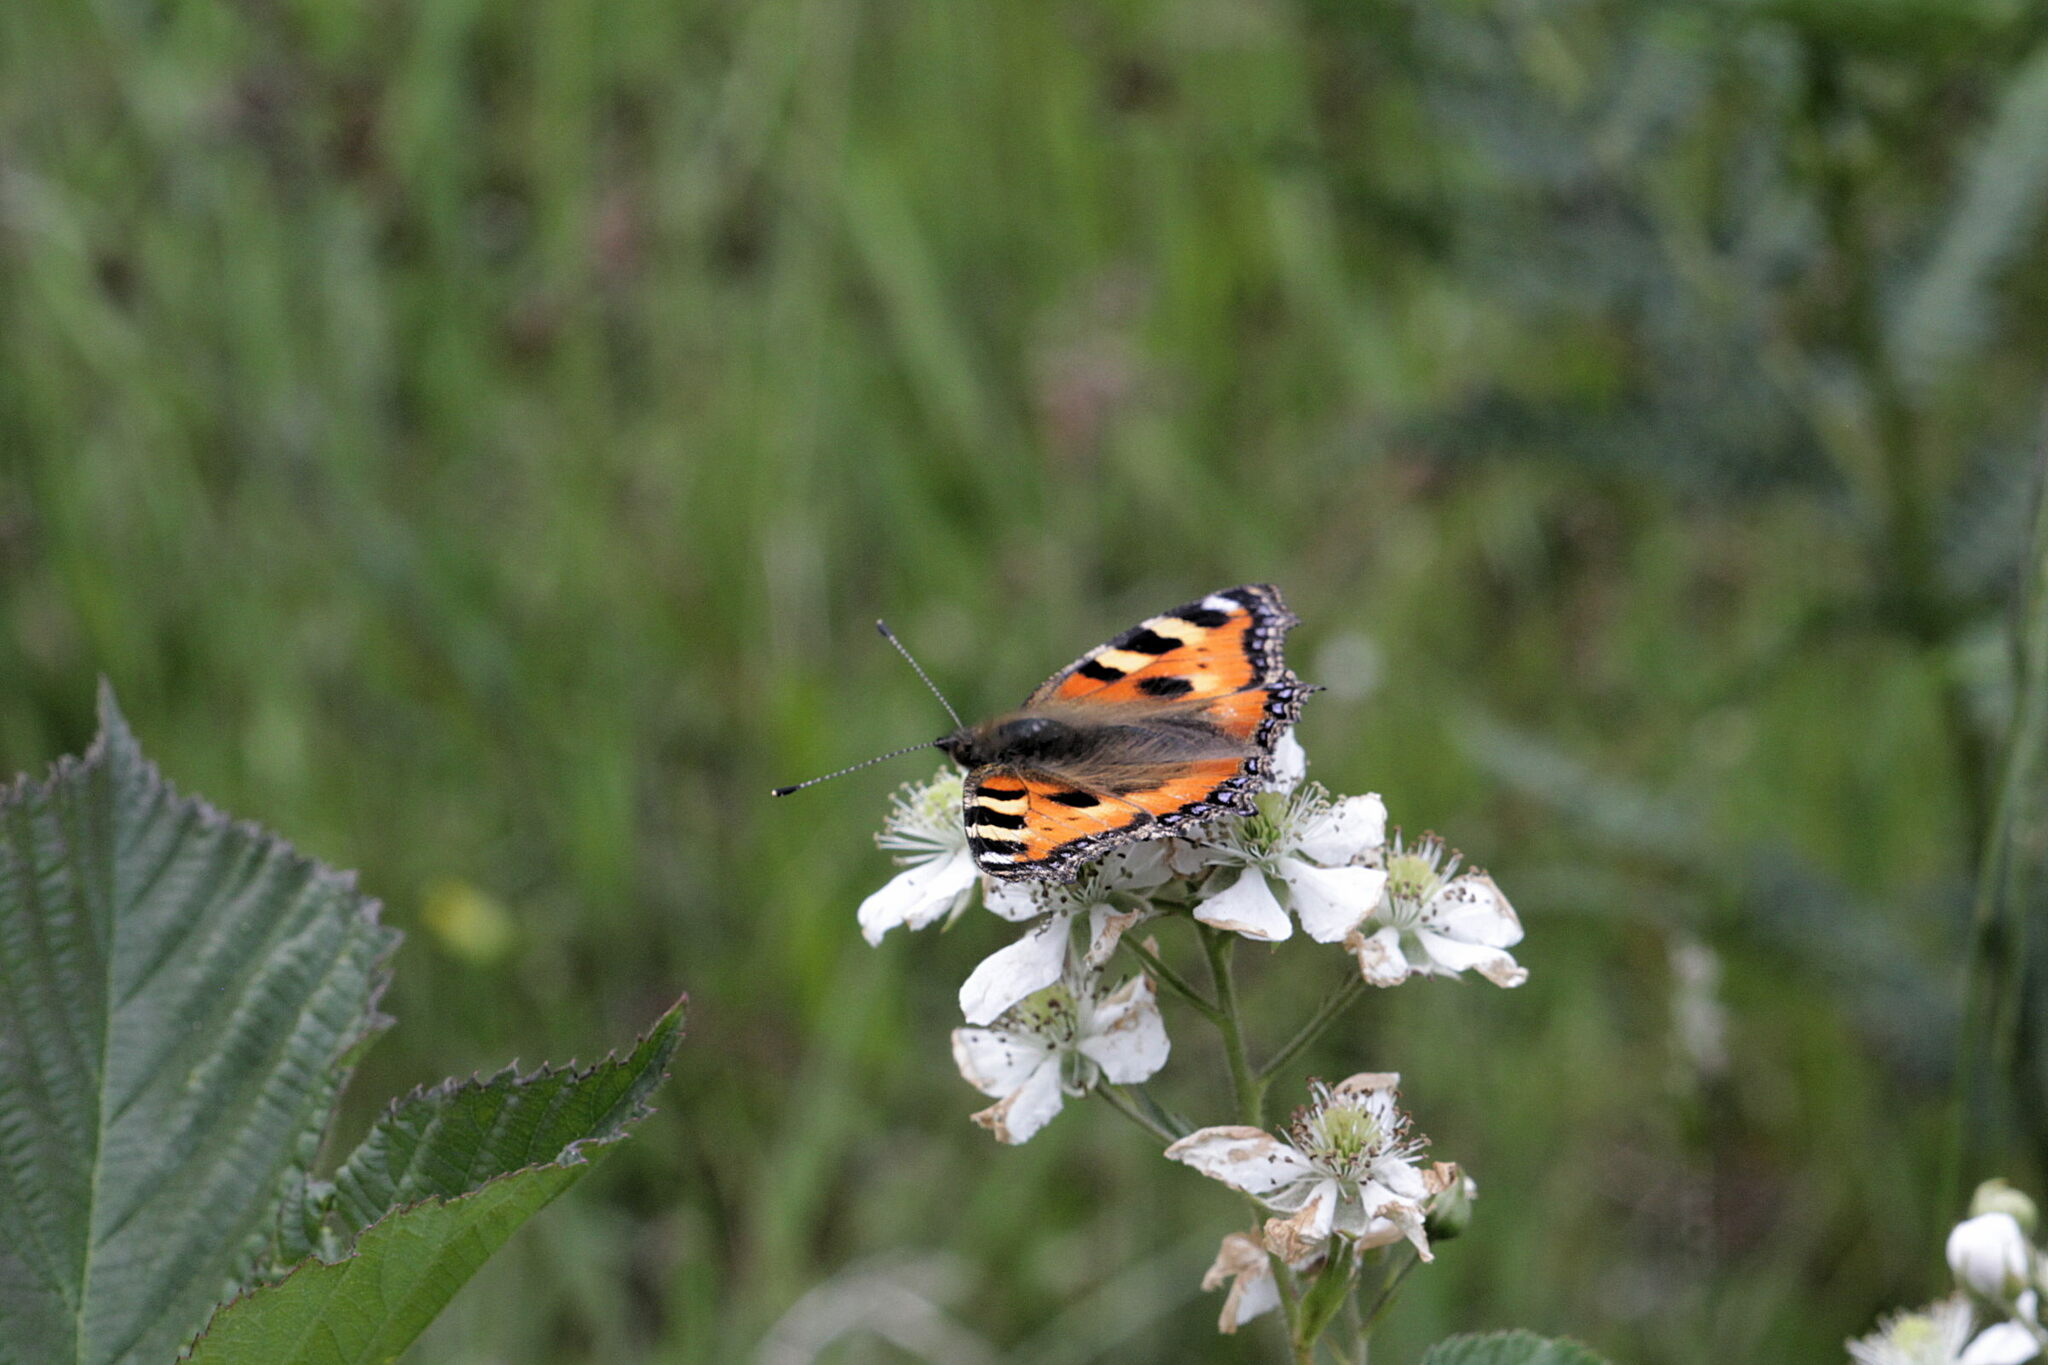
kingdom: Animalia
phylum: Arthropoda
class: Insecta
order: Lepidoptera
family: Nymphalidae
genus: Aglais
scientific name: Aglais urticae
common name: Small tortoiseshell
